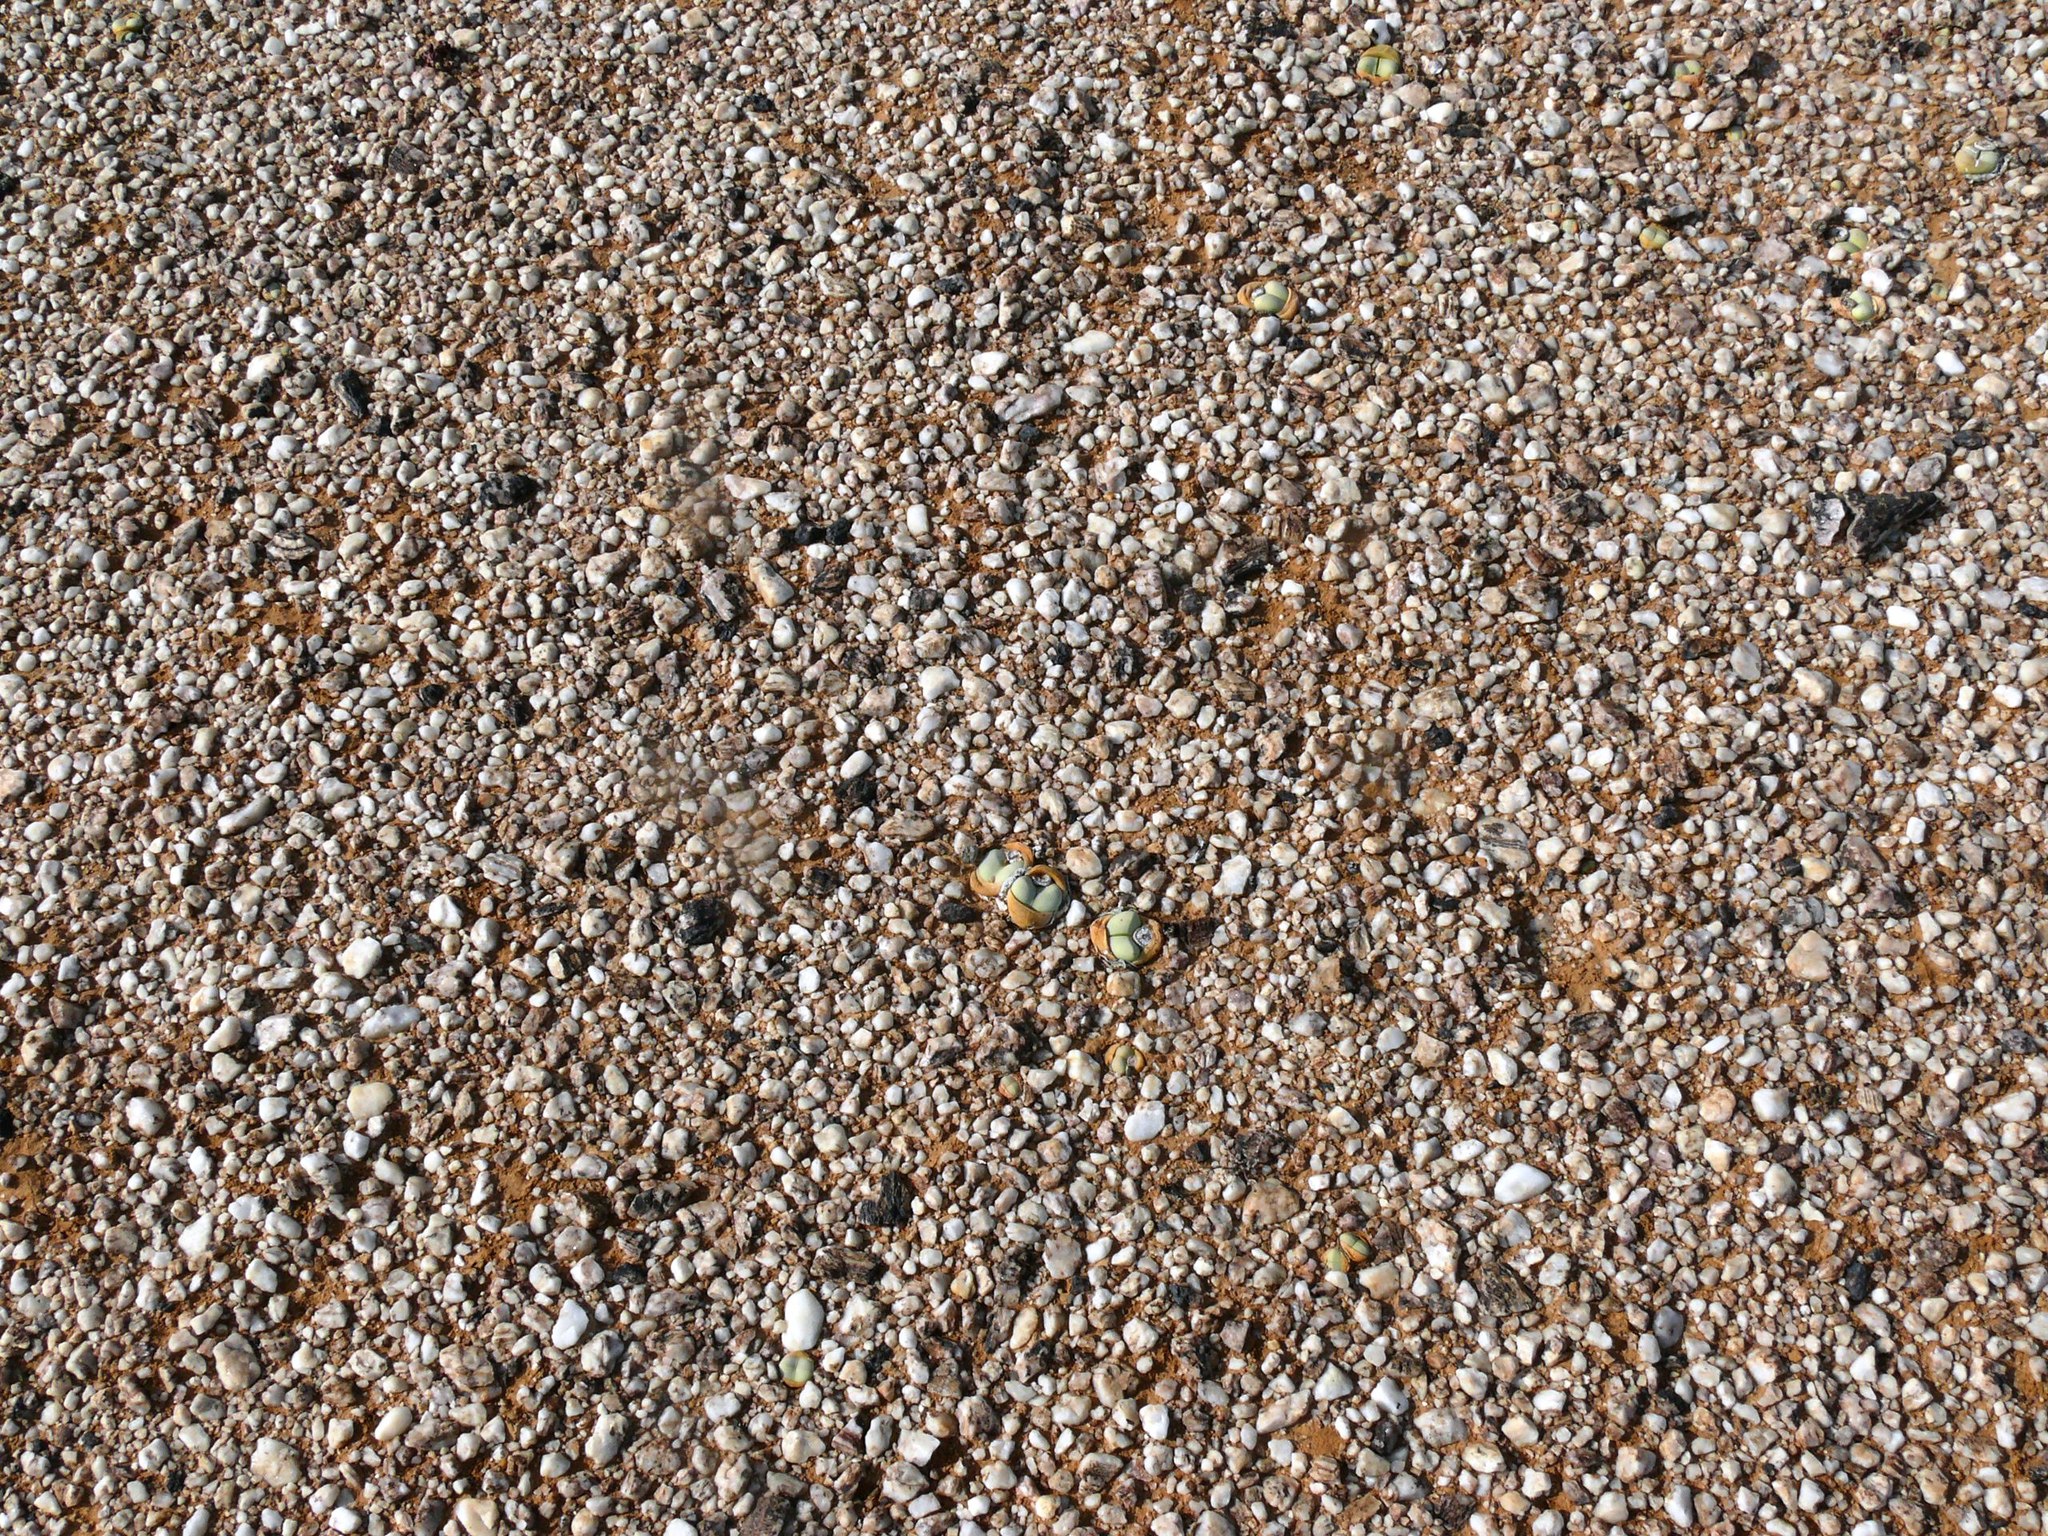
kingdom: Plantae
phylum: Tracheophyta
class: Magnoliopsida
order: Caryophyllales
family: Aizoaceae
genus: Argyroderma
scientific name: Argyroderma delaetii
